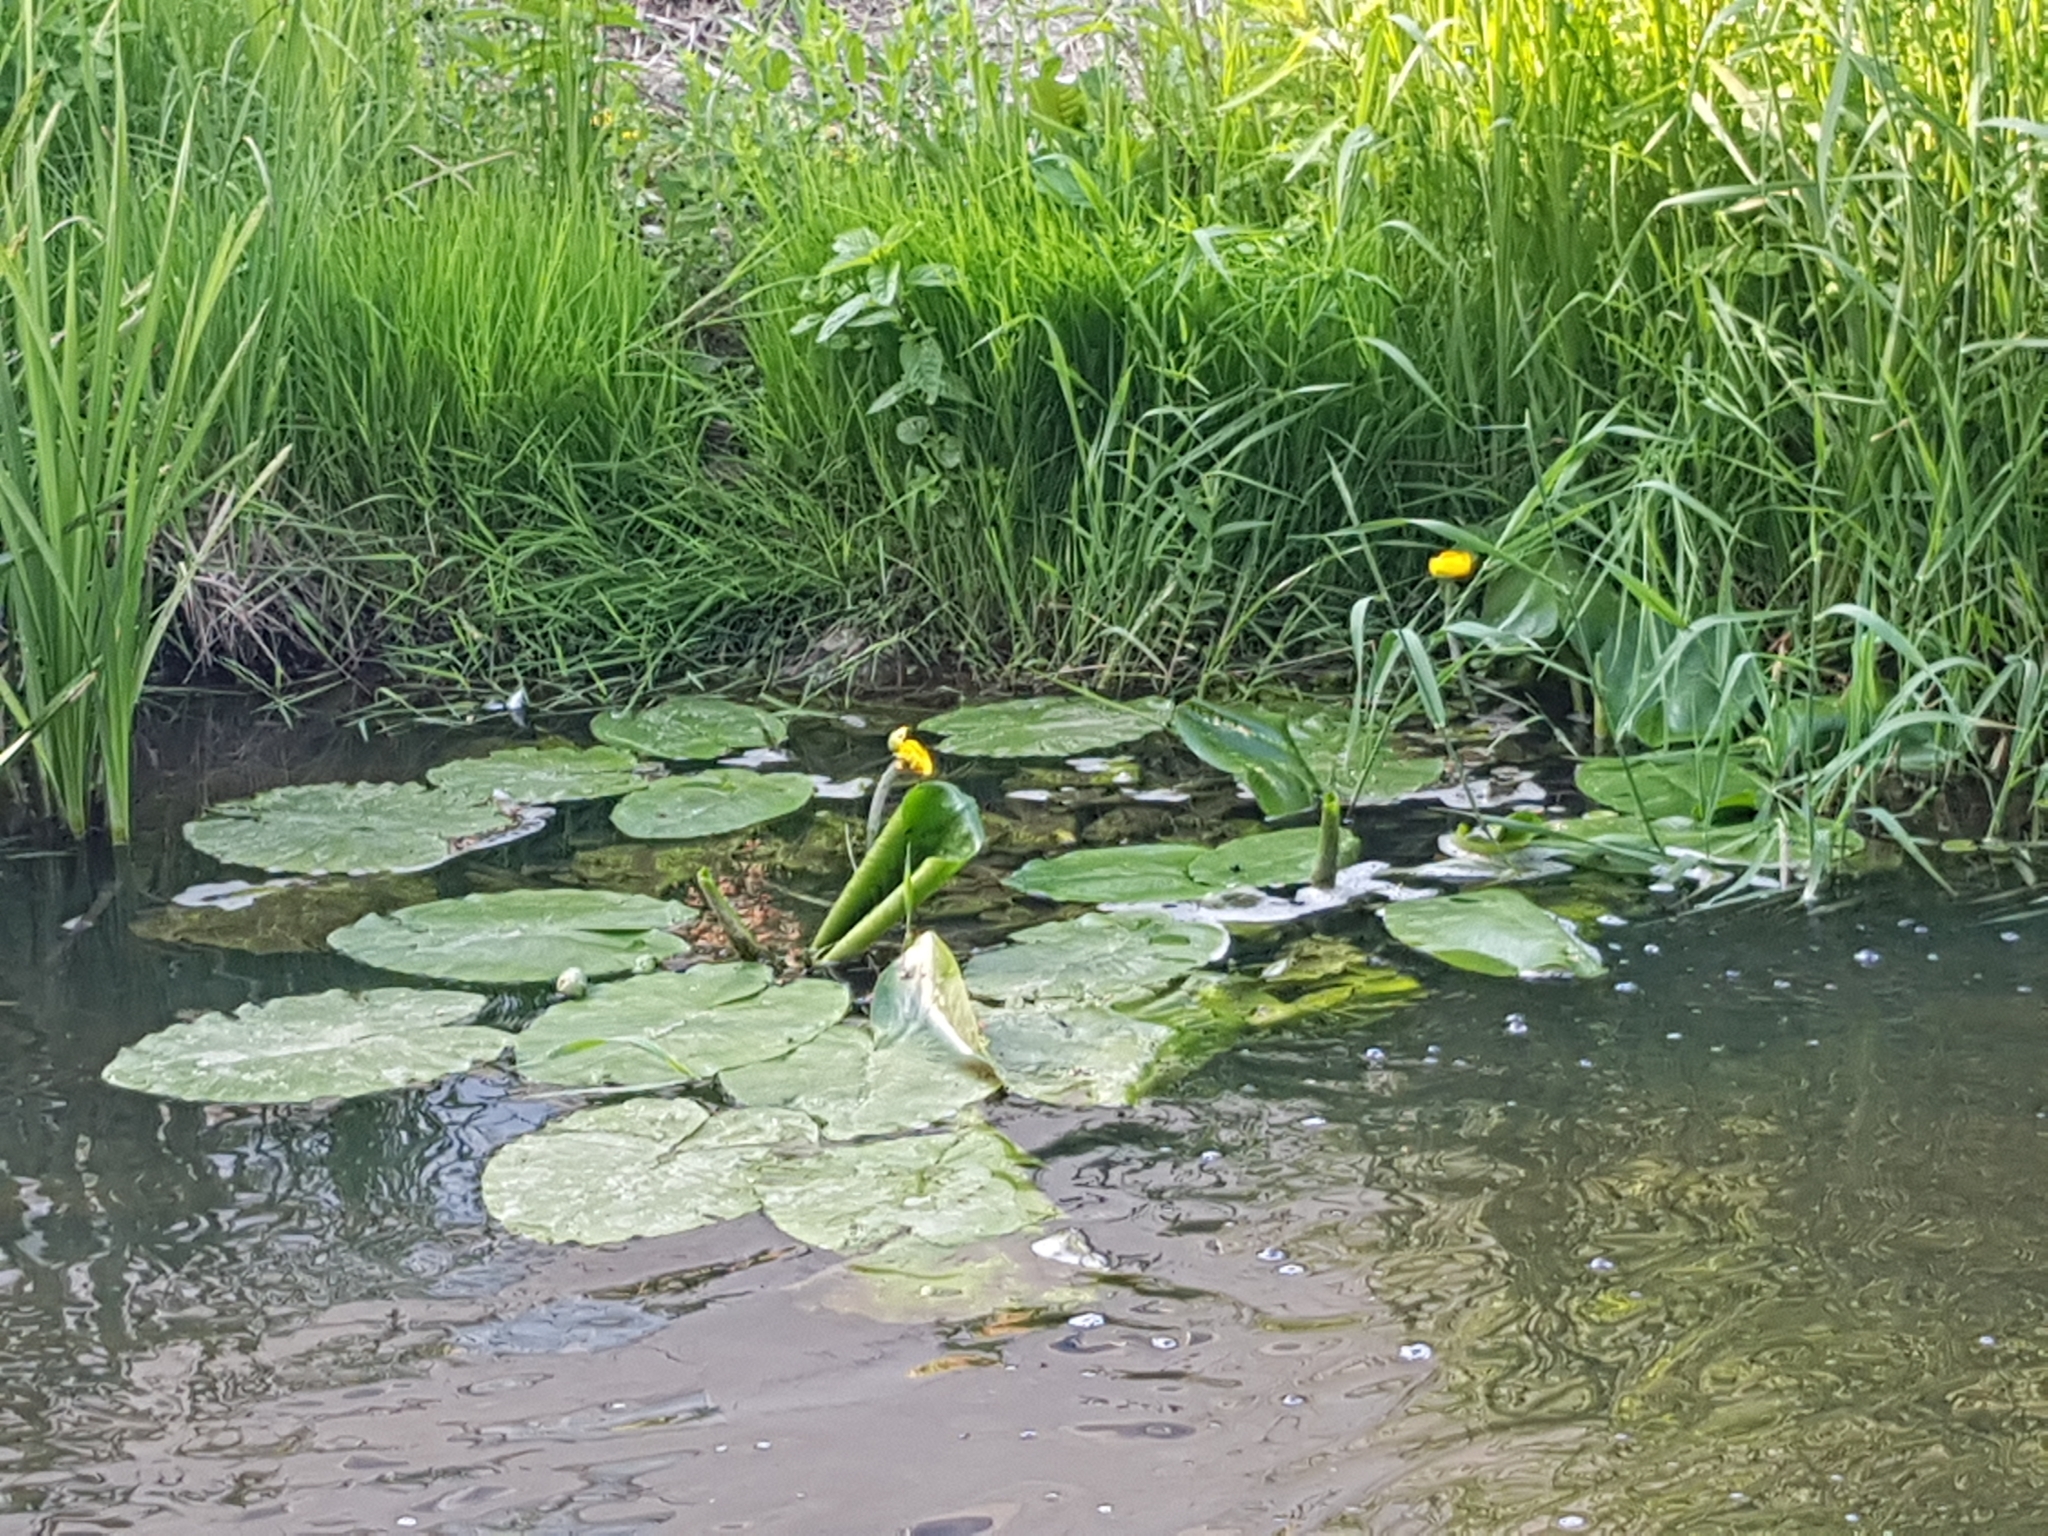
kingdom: Plantae
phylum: Tracheophyta
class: Magnoliopsida
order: Nymphaeales
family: Nymphaeaceae
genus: Nuphar
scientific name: Nuphar lutea
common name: Yellow water-lily
